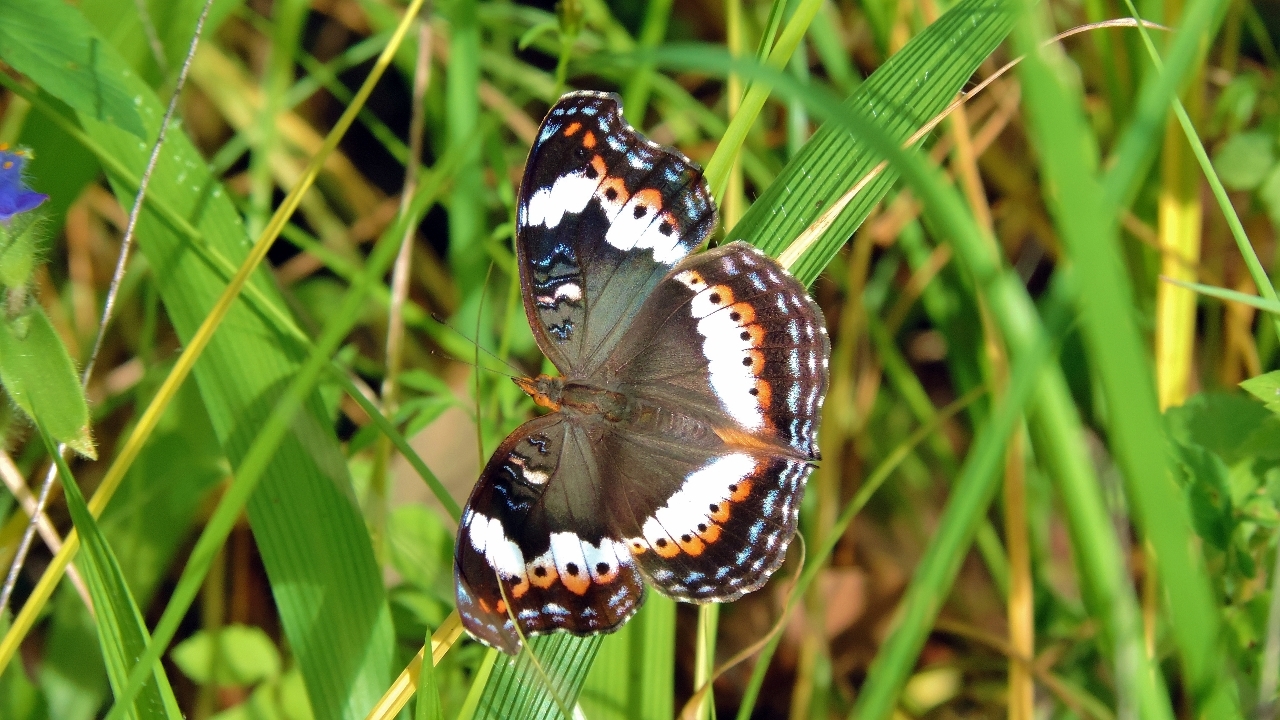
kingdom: Animalia
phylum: Arthropoda
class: Insecta
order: Lepidoptera
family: Nymphalidae
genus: Precis
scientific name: Precis actia
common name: Air commodore
